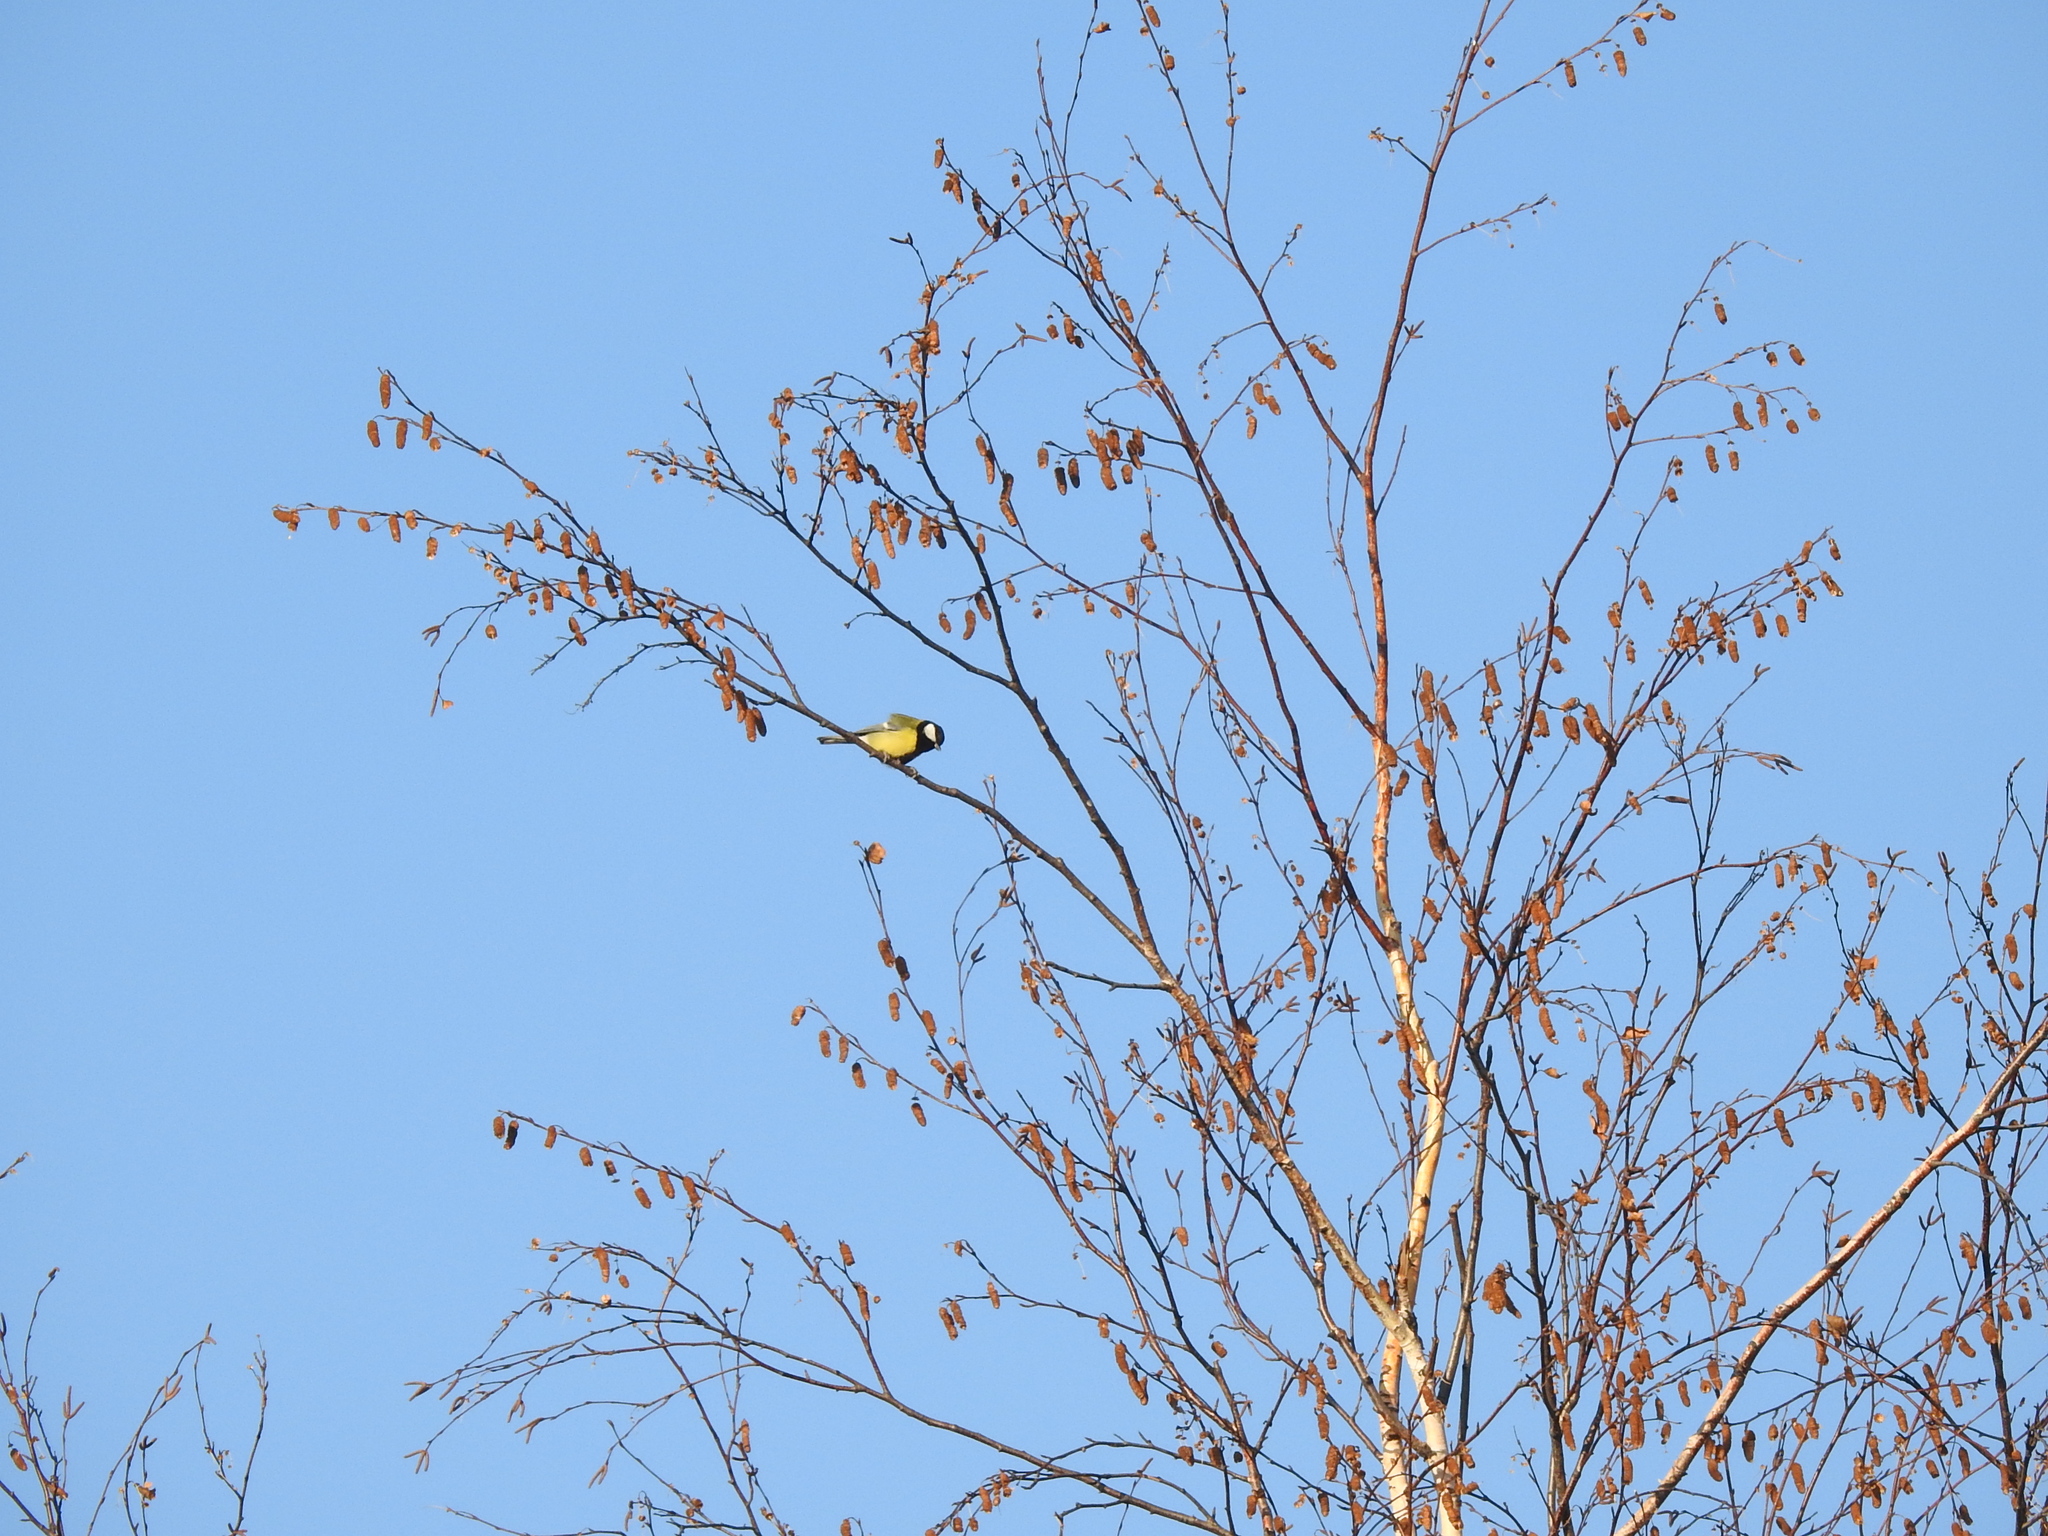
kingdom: Animalia
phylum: Chordata
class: Aves
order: Passeriformes
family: Paridae
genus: Parus
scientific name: Parus major
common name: Great tit
